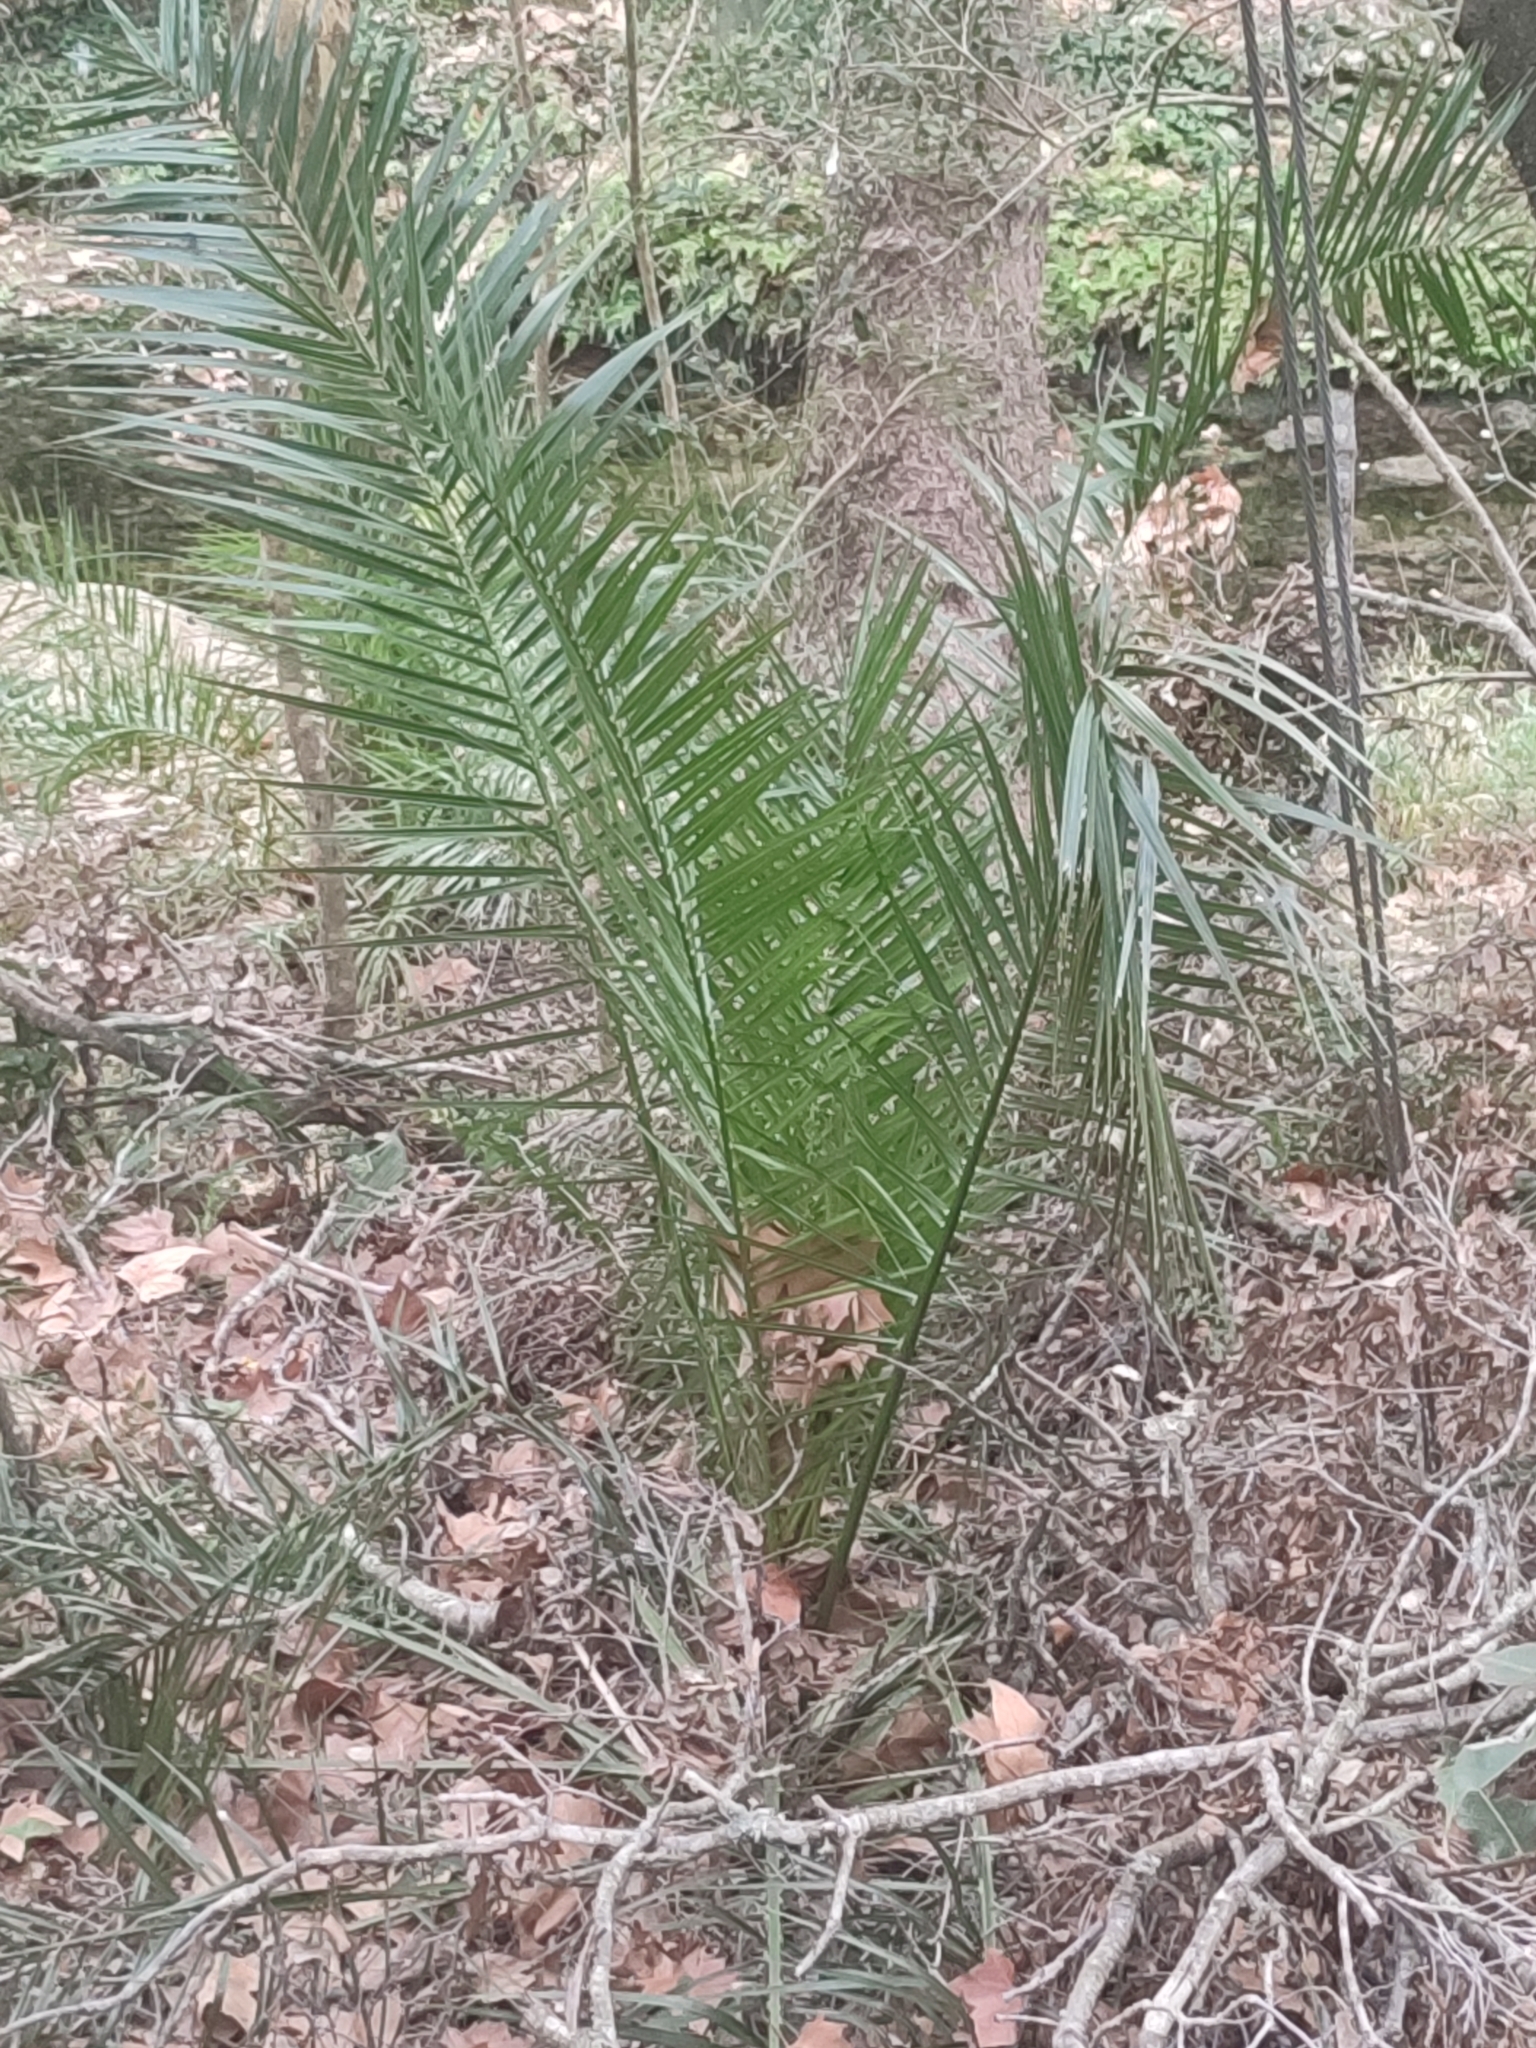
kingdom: Plantae
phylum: Tracheophyta
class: Liliopsida
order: Arecales
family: Arecaceae
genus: Phoenix
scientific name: Phoenix canariensis
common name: Canary island date palm
